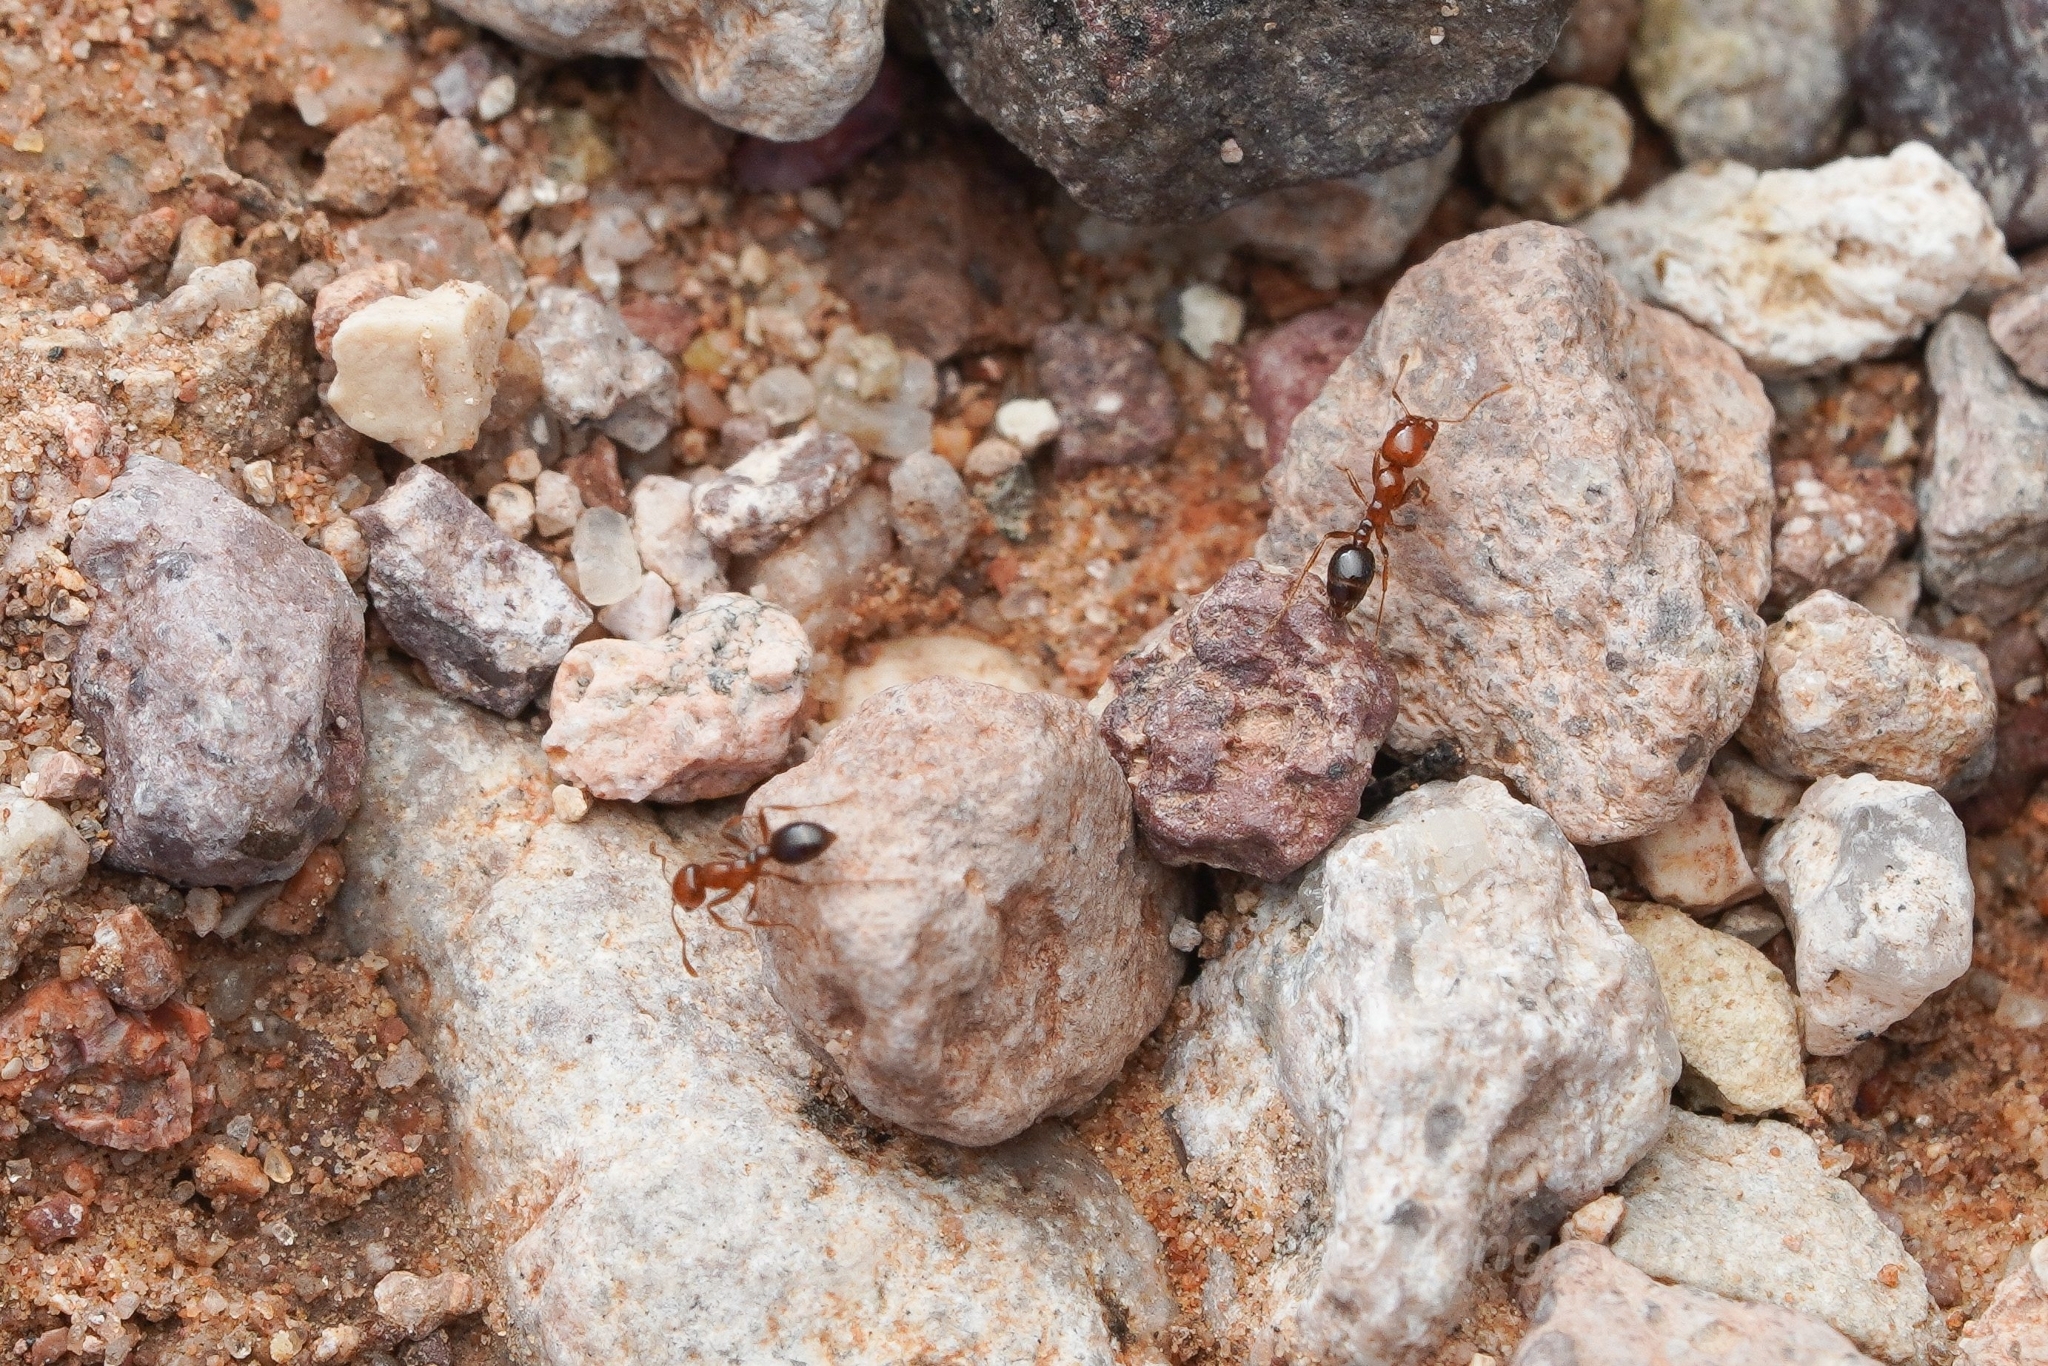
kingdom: Animalia
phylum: Arthropoda
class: Insecta
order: Hymenoptera
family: Formicidae
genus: Solenopsis
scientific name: Solenopsis xyloni
